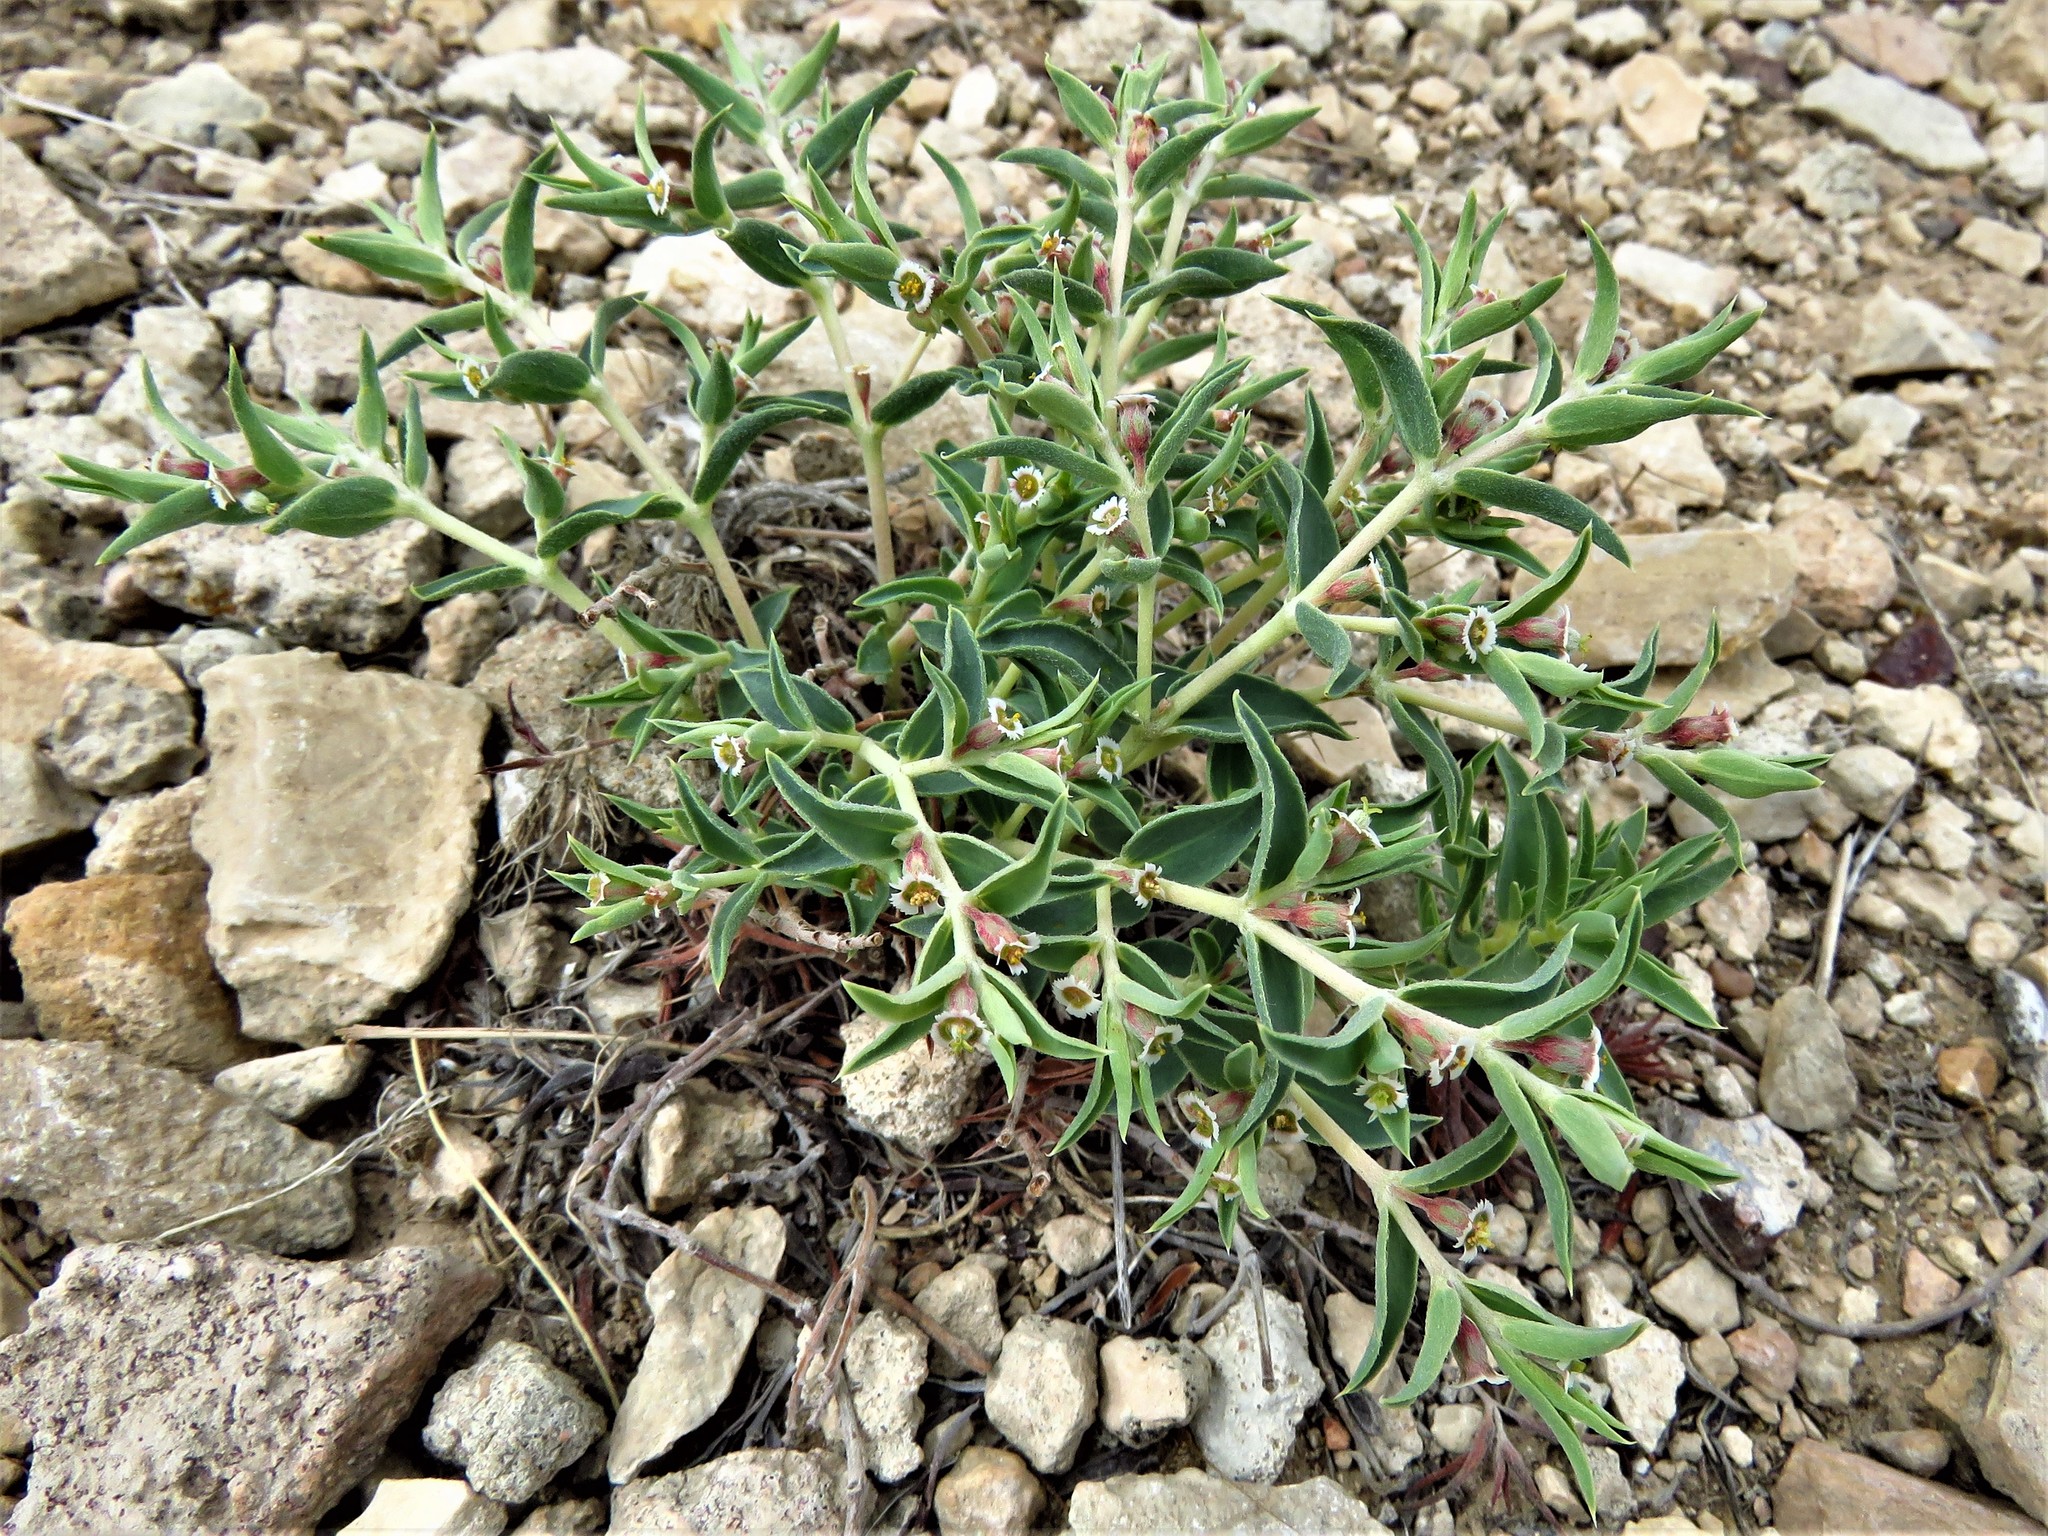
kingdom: Plantae
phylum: Tracheophyta
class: Magnoliopsida
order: Malpighiales
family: Euphorbiaceae
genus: Euphorbia
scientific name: Euphorbia acuta
